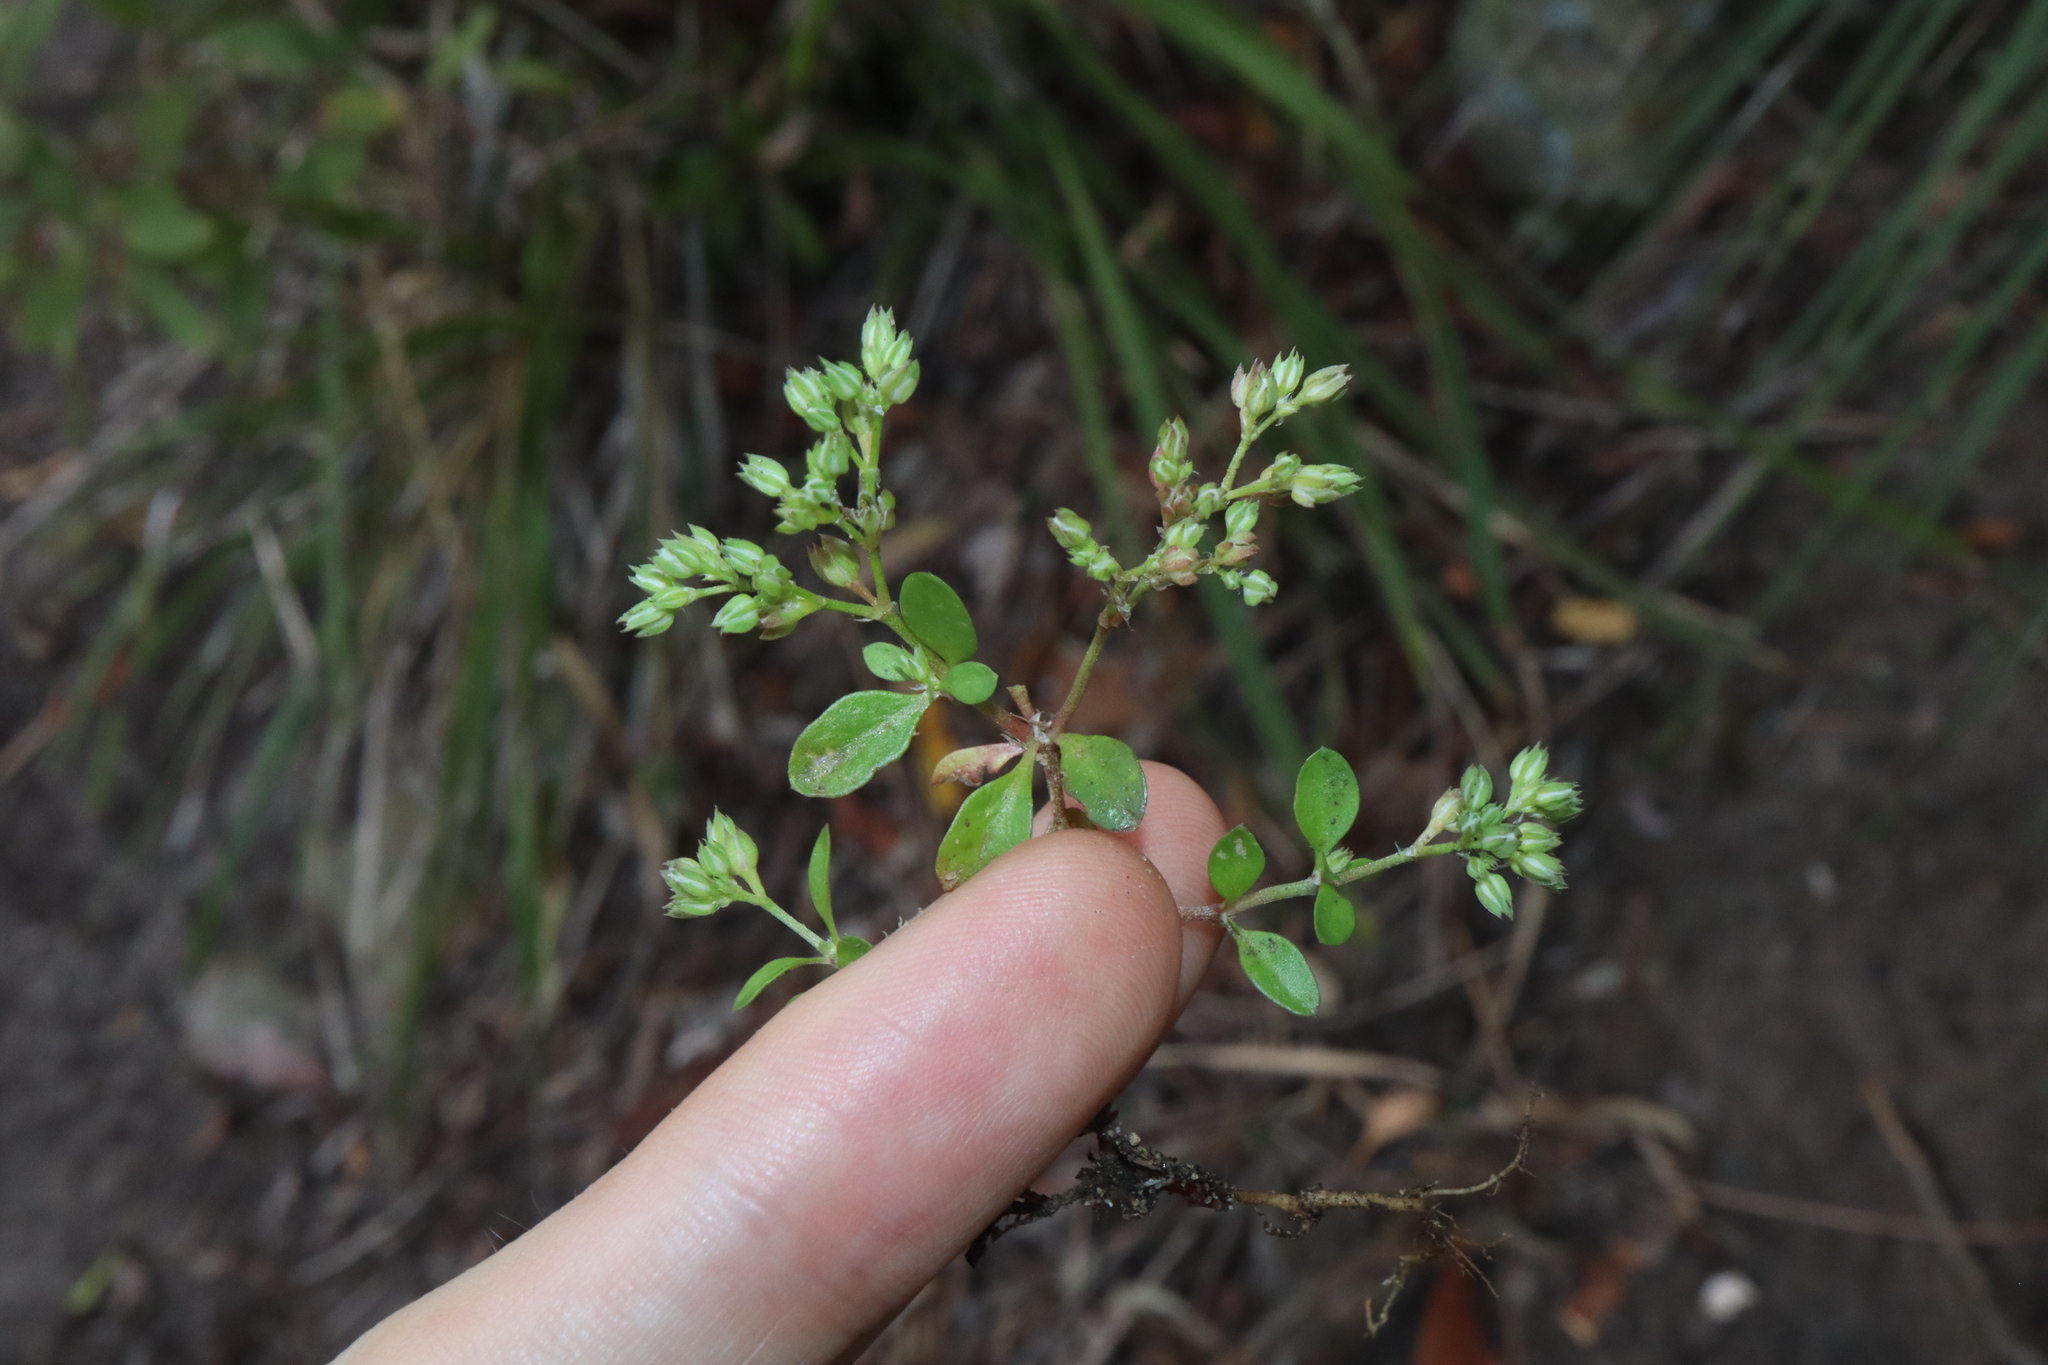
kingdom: Plantae
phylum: Tracheophyta
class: Magnoliopsida
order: Caryophyllales
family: Caryophyllaceae
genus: Polycarpon
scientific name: Polycarpon tetraphyllum
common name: Four-leaved all-seed
